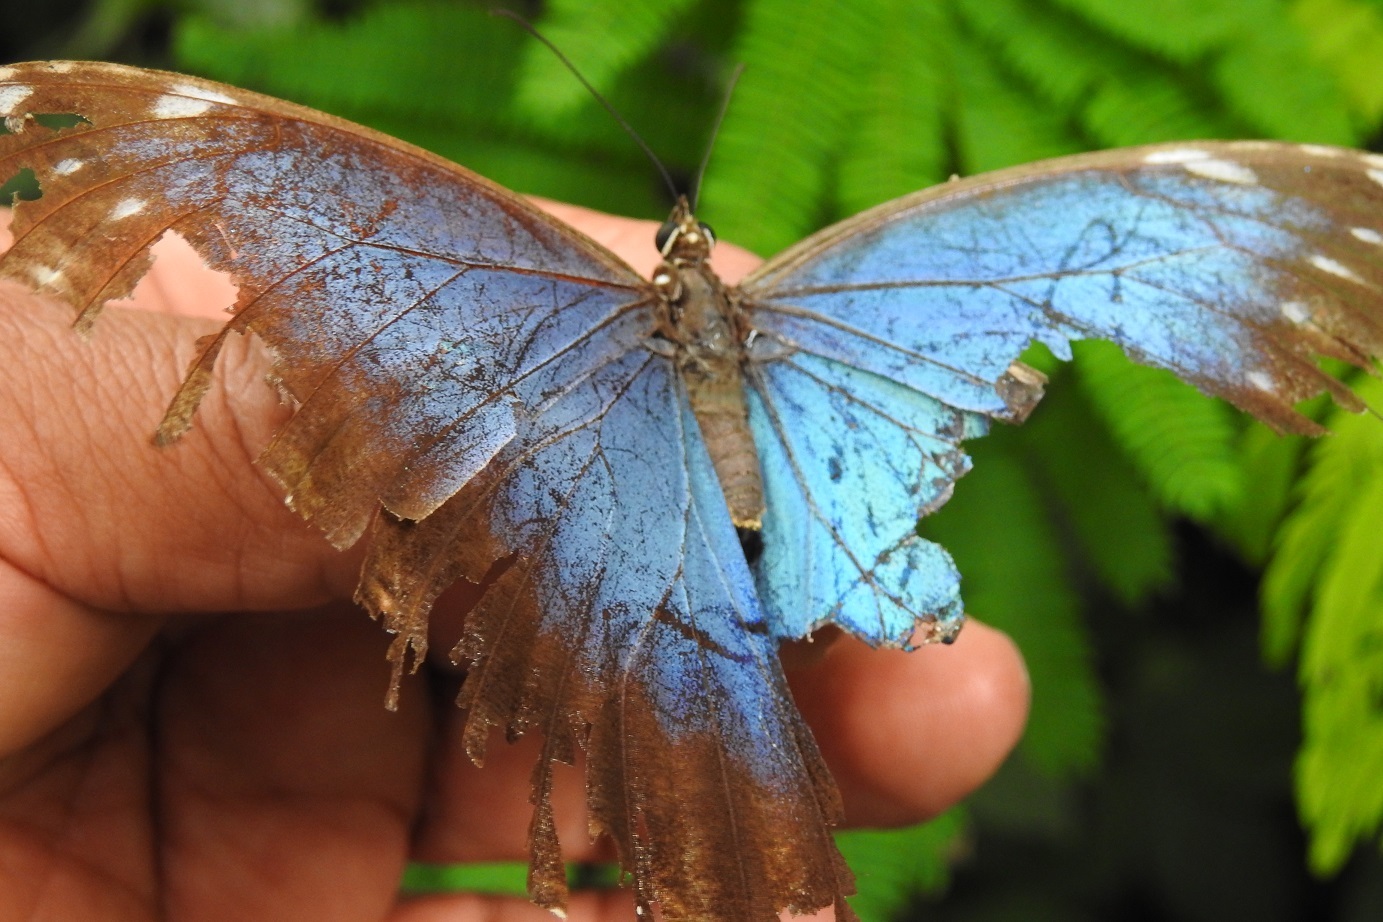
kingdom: Animalia
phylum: Arthropoda
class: Insecta
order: Lepidoptera
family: Nymphalidae
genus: Morpho
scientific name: Morpho helenor
